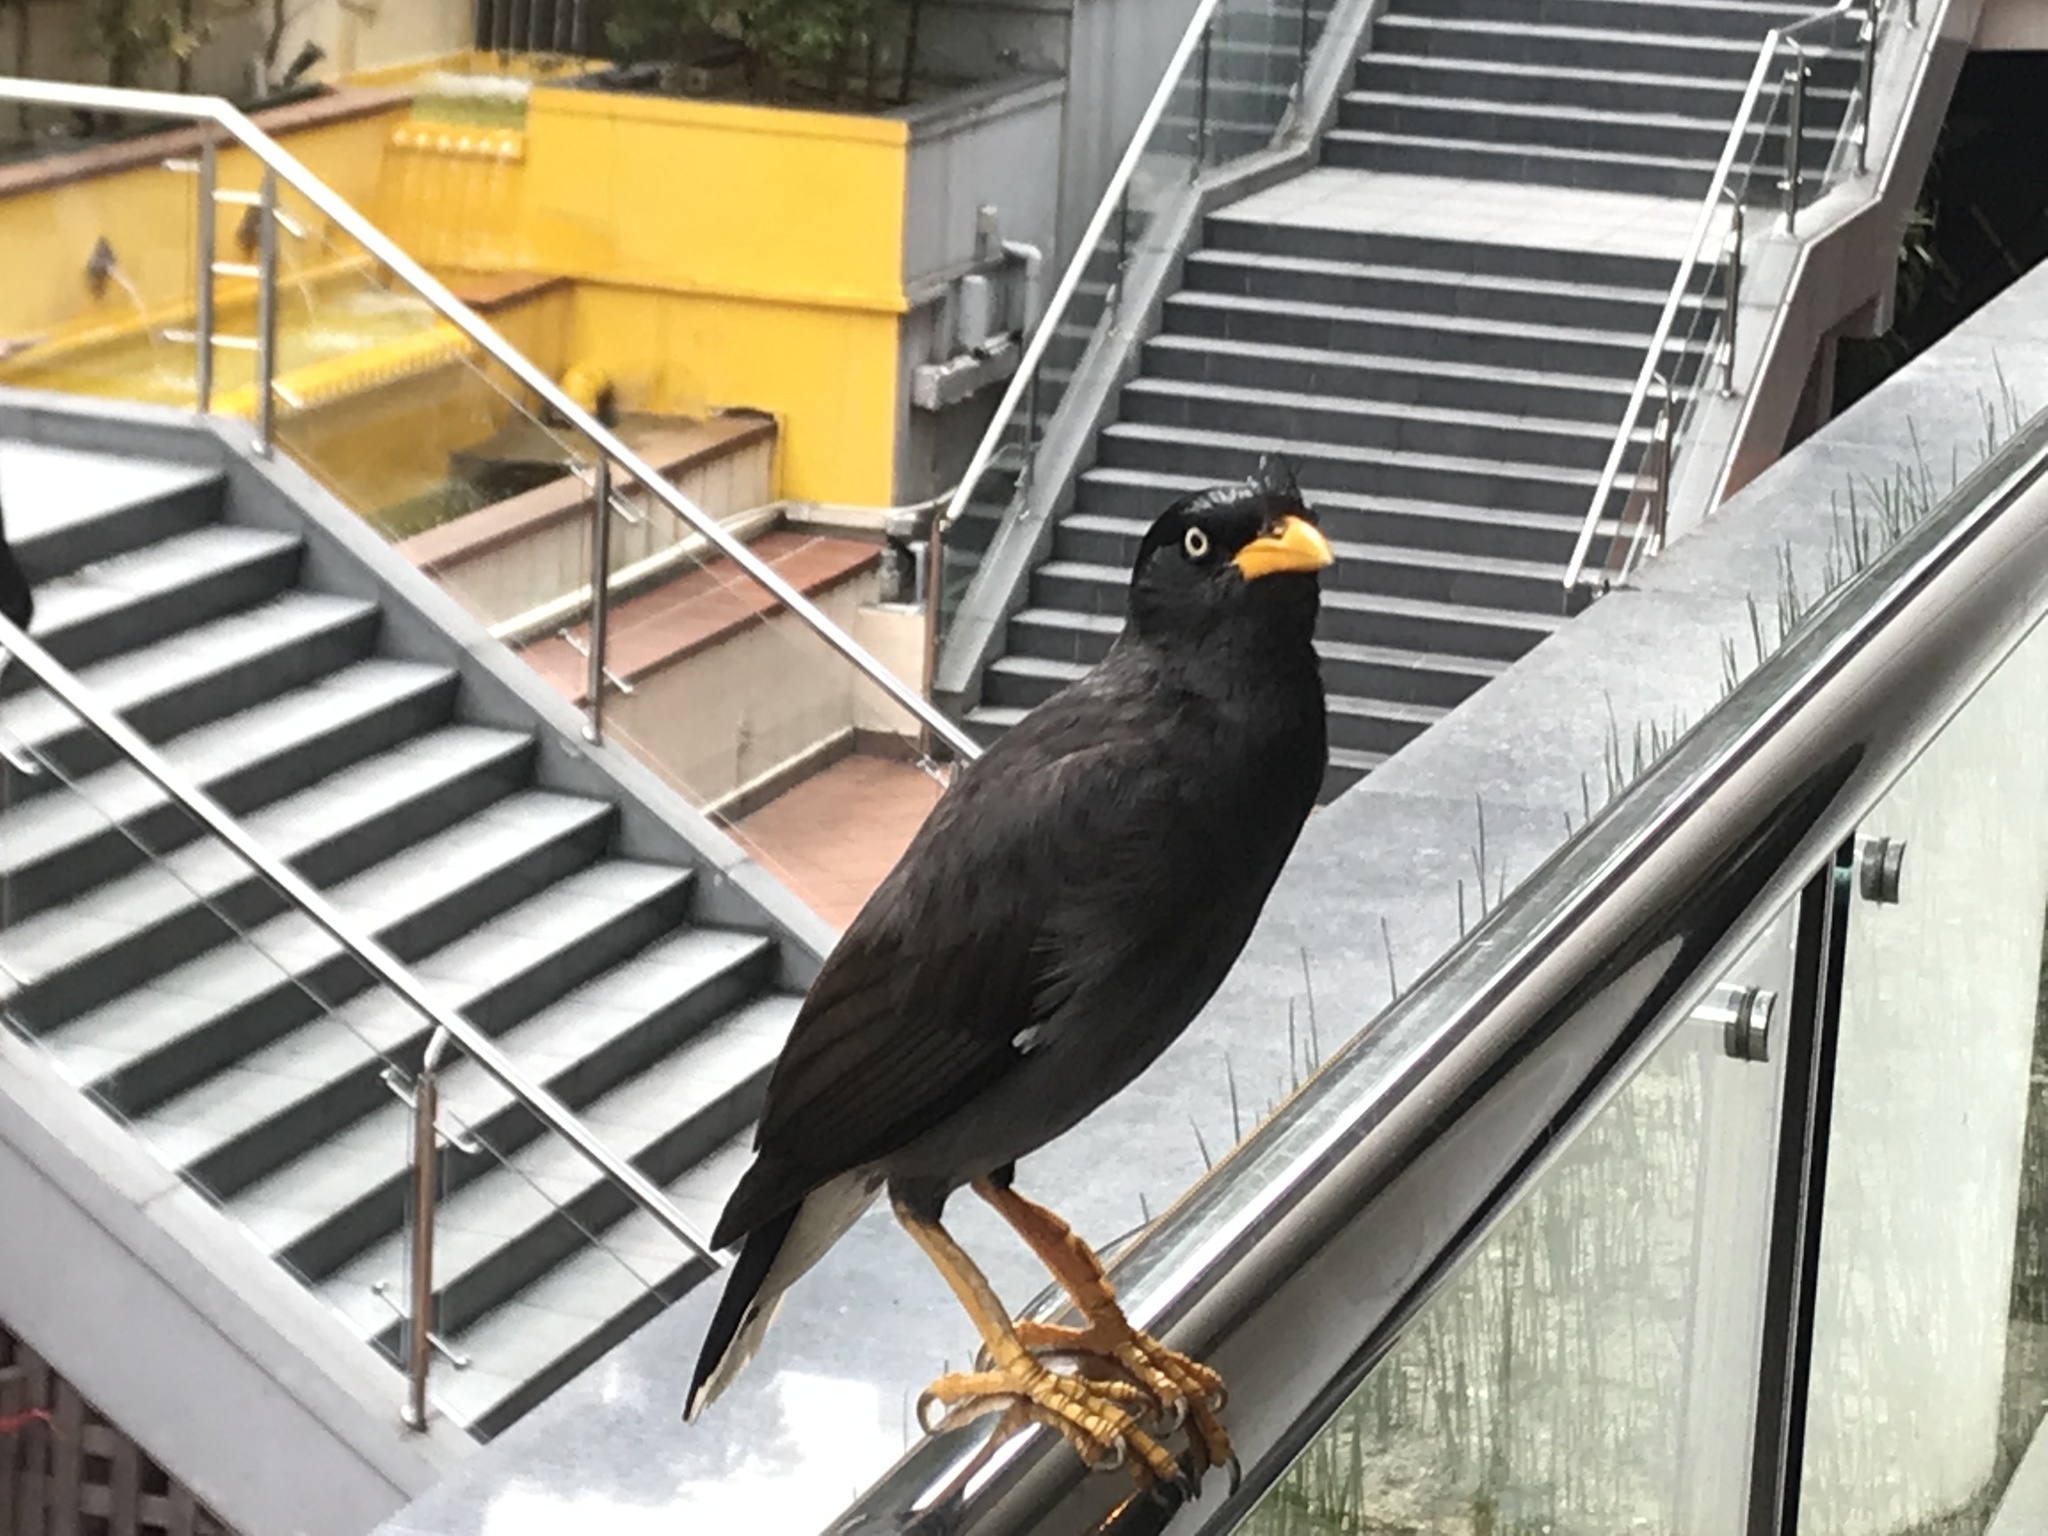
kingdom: Animalia
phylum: Chordata
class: Aves
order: Passeriformes
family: Sturnidae
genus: Acridotheres
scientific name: Acridotheres javanicus
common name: Javan myna
